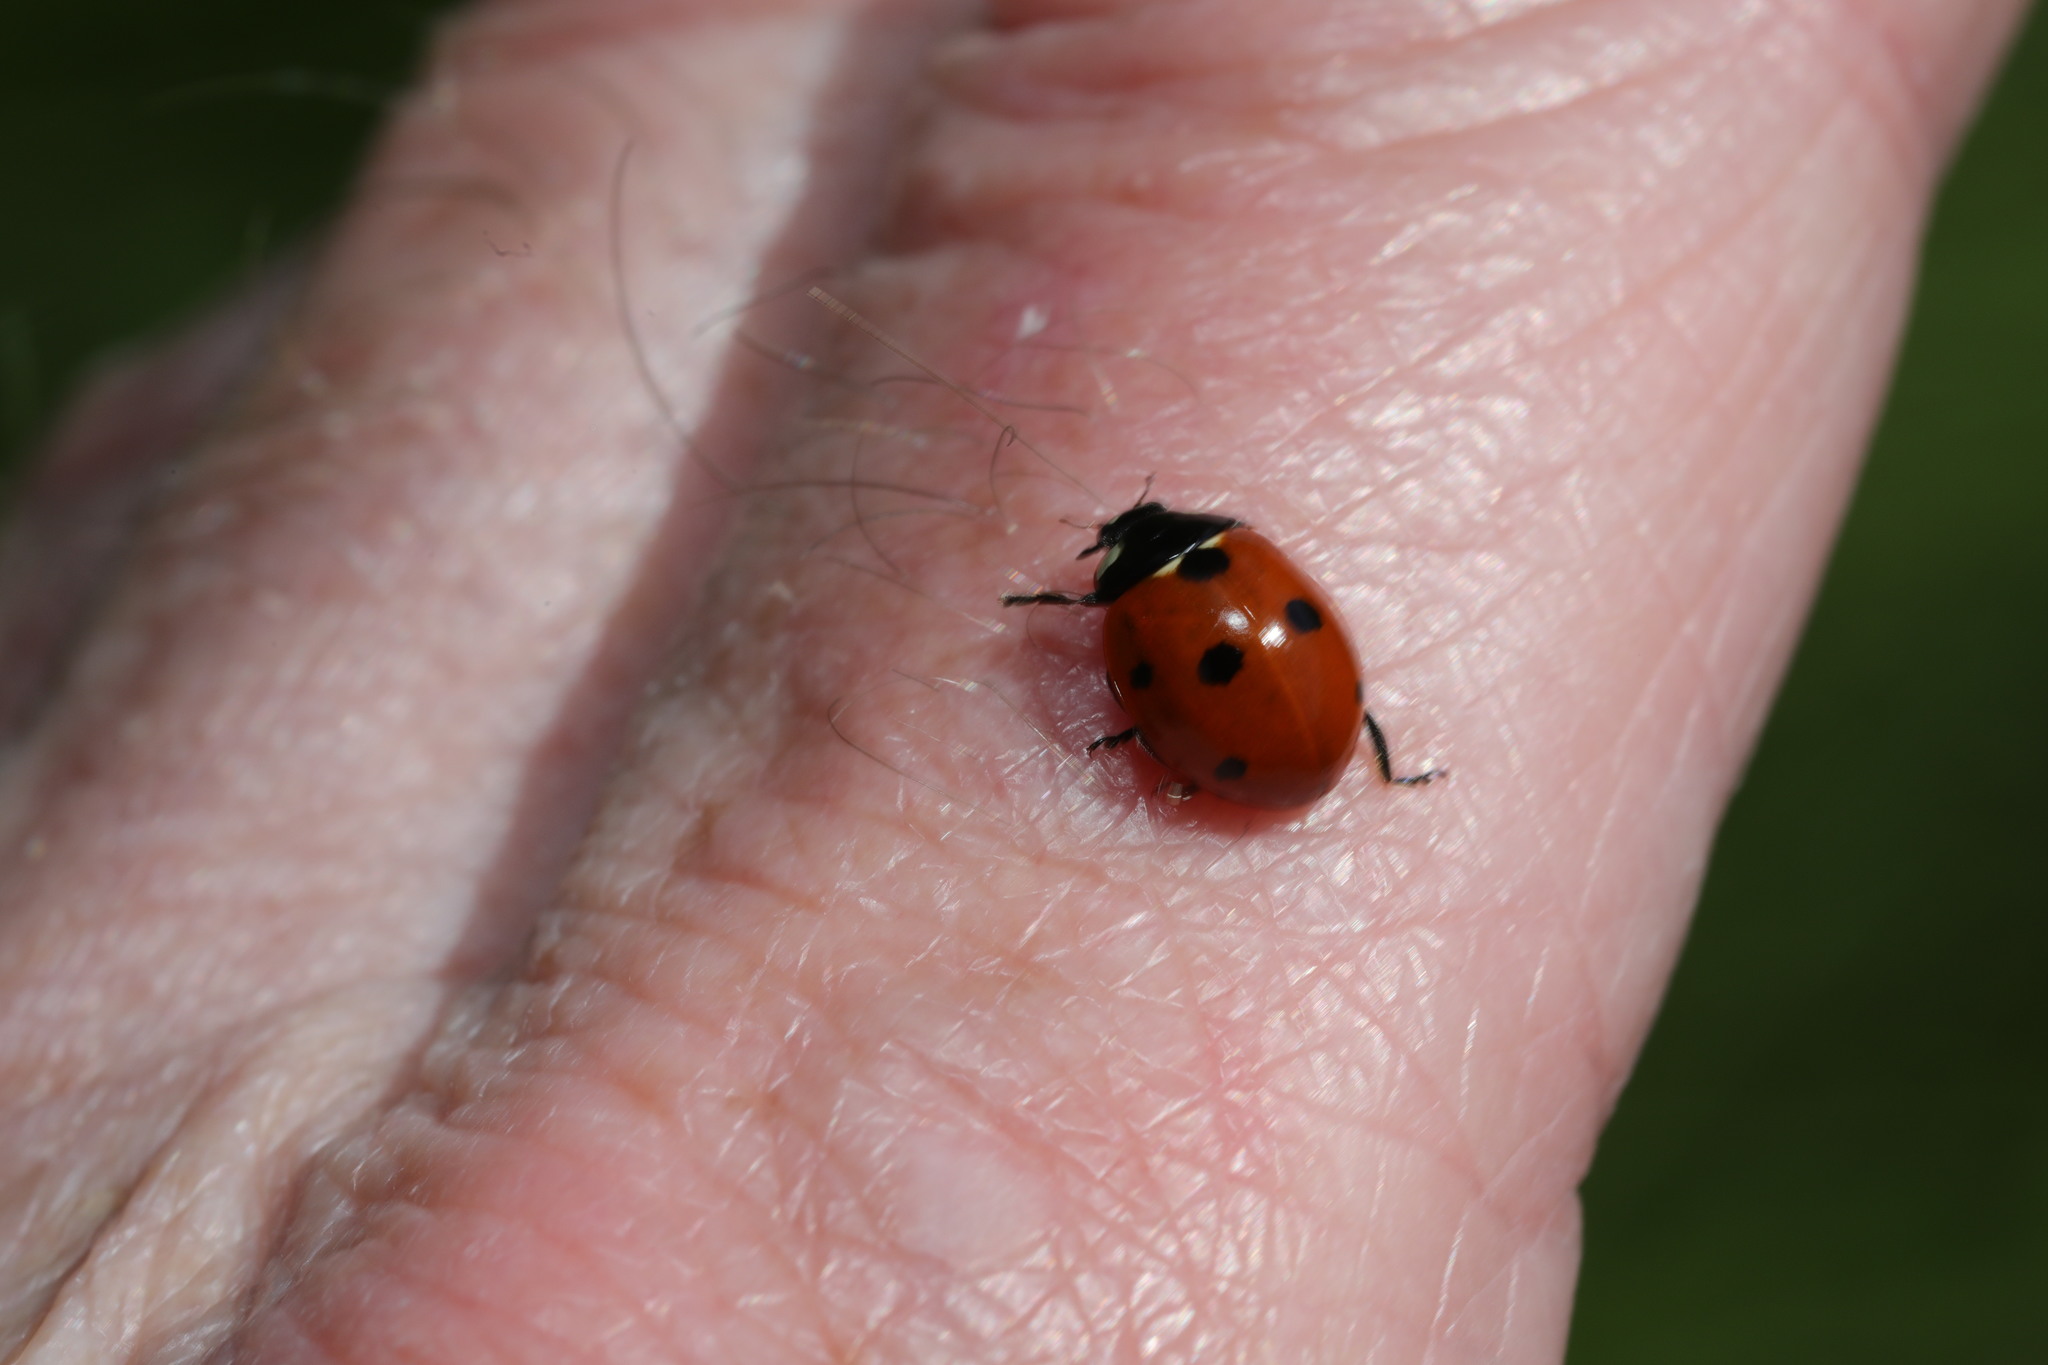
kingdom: Animalia
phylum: Arthropoda
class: Insecta
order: Coleoptera
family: Coccinellidae
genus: Coccinella
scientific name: Coccinella septempunctata
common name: Sevenspotted lady beetle
